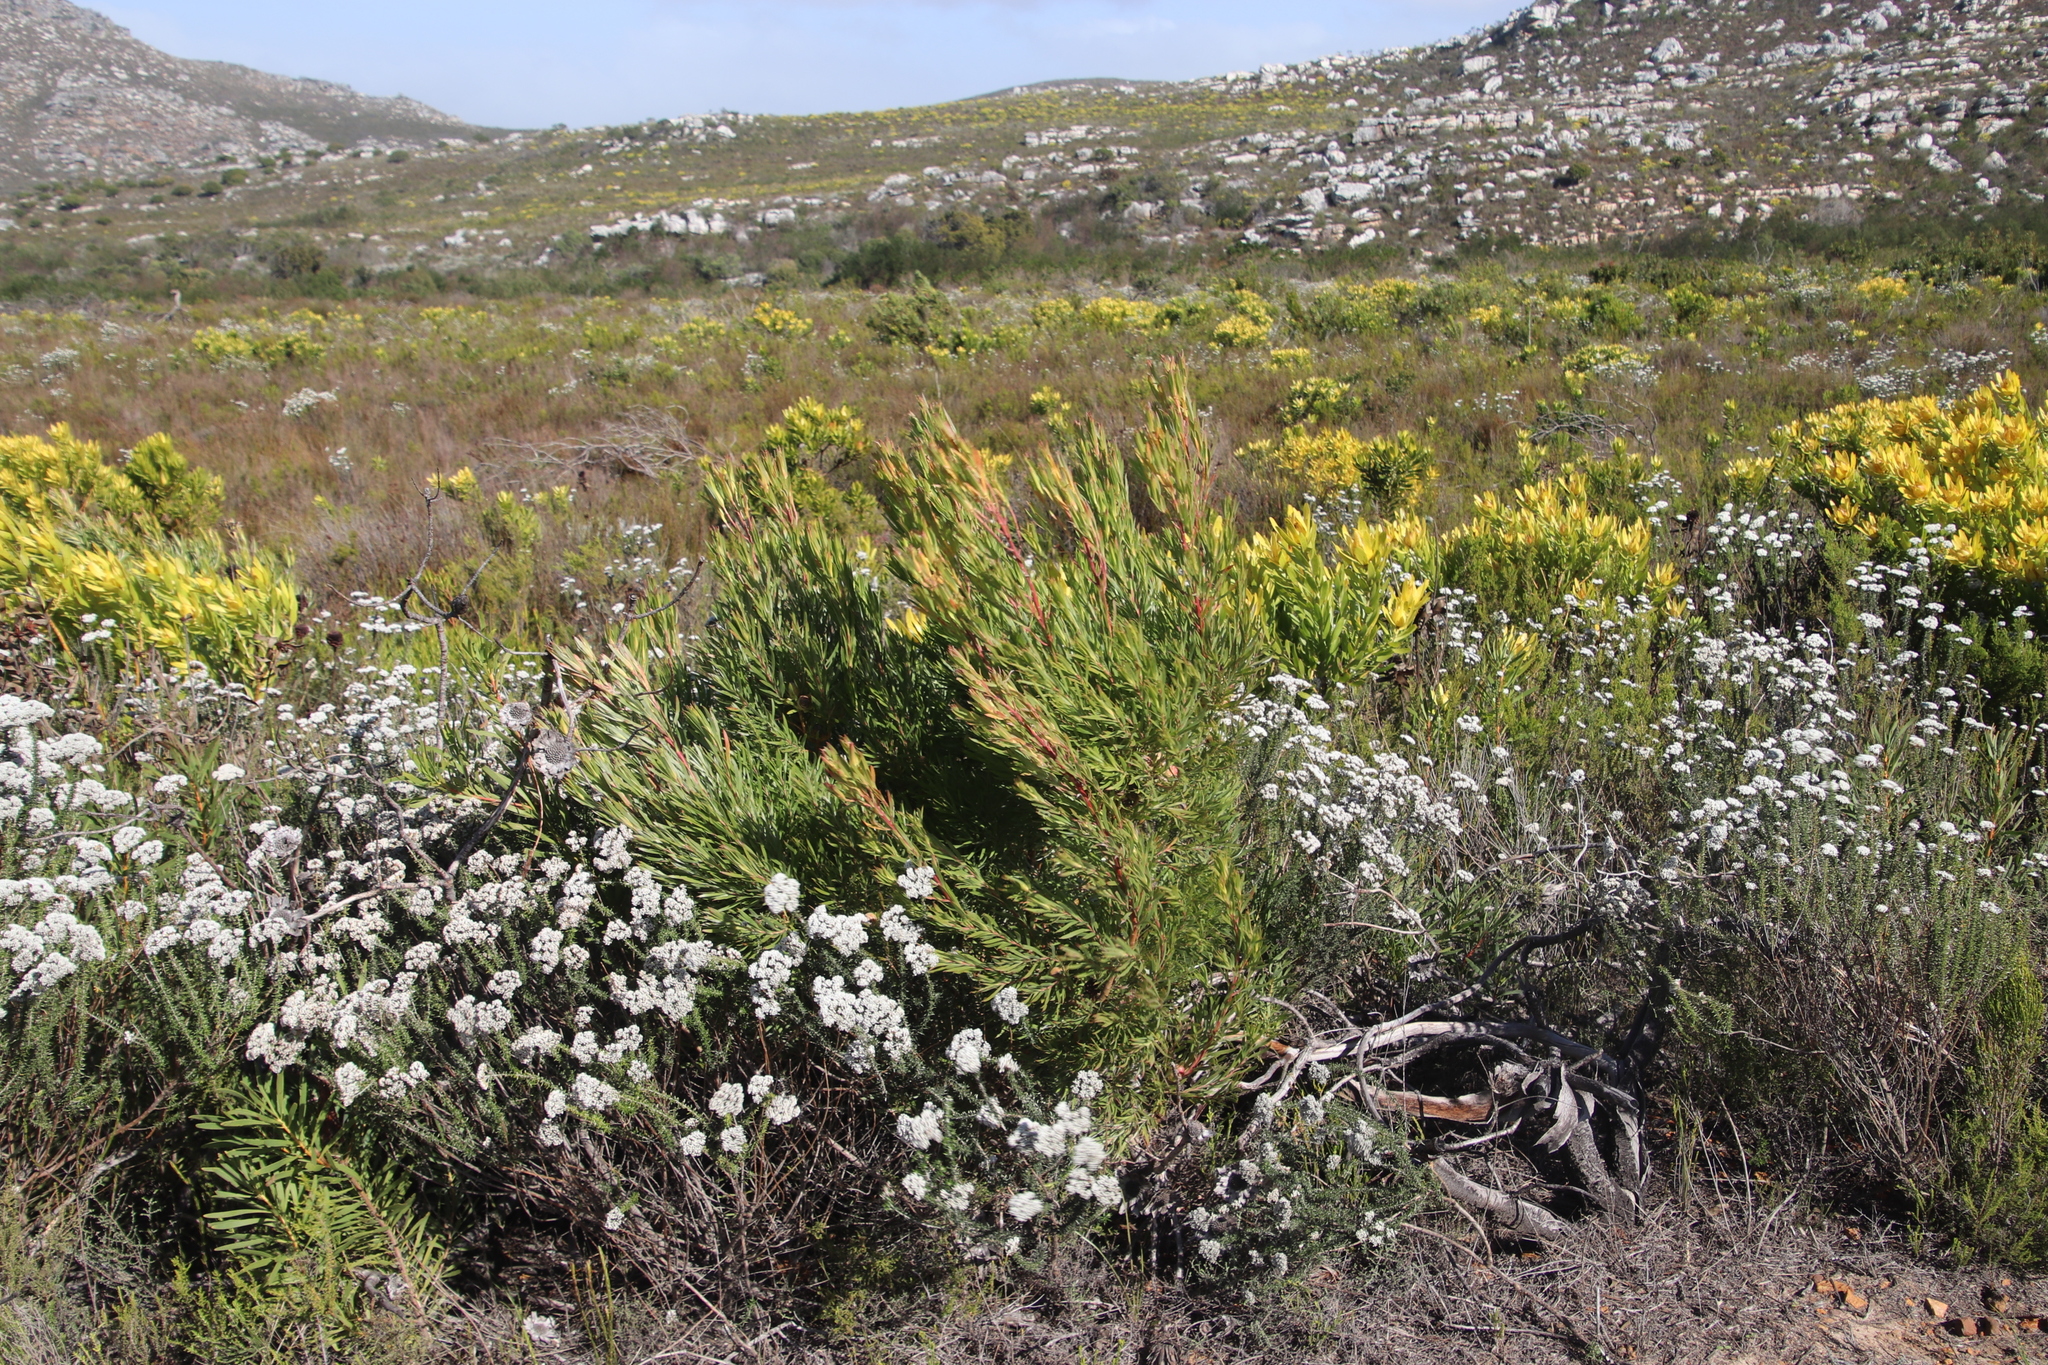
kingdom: Plantae
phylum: Tracheophyta
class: Magnoliopsida
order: Proteales
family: Proteaceae
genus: Leucadendron
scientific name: Leucadendron xanthoconus
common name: Sickle-leaf conebush
